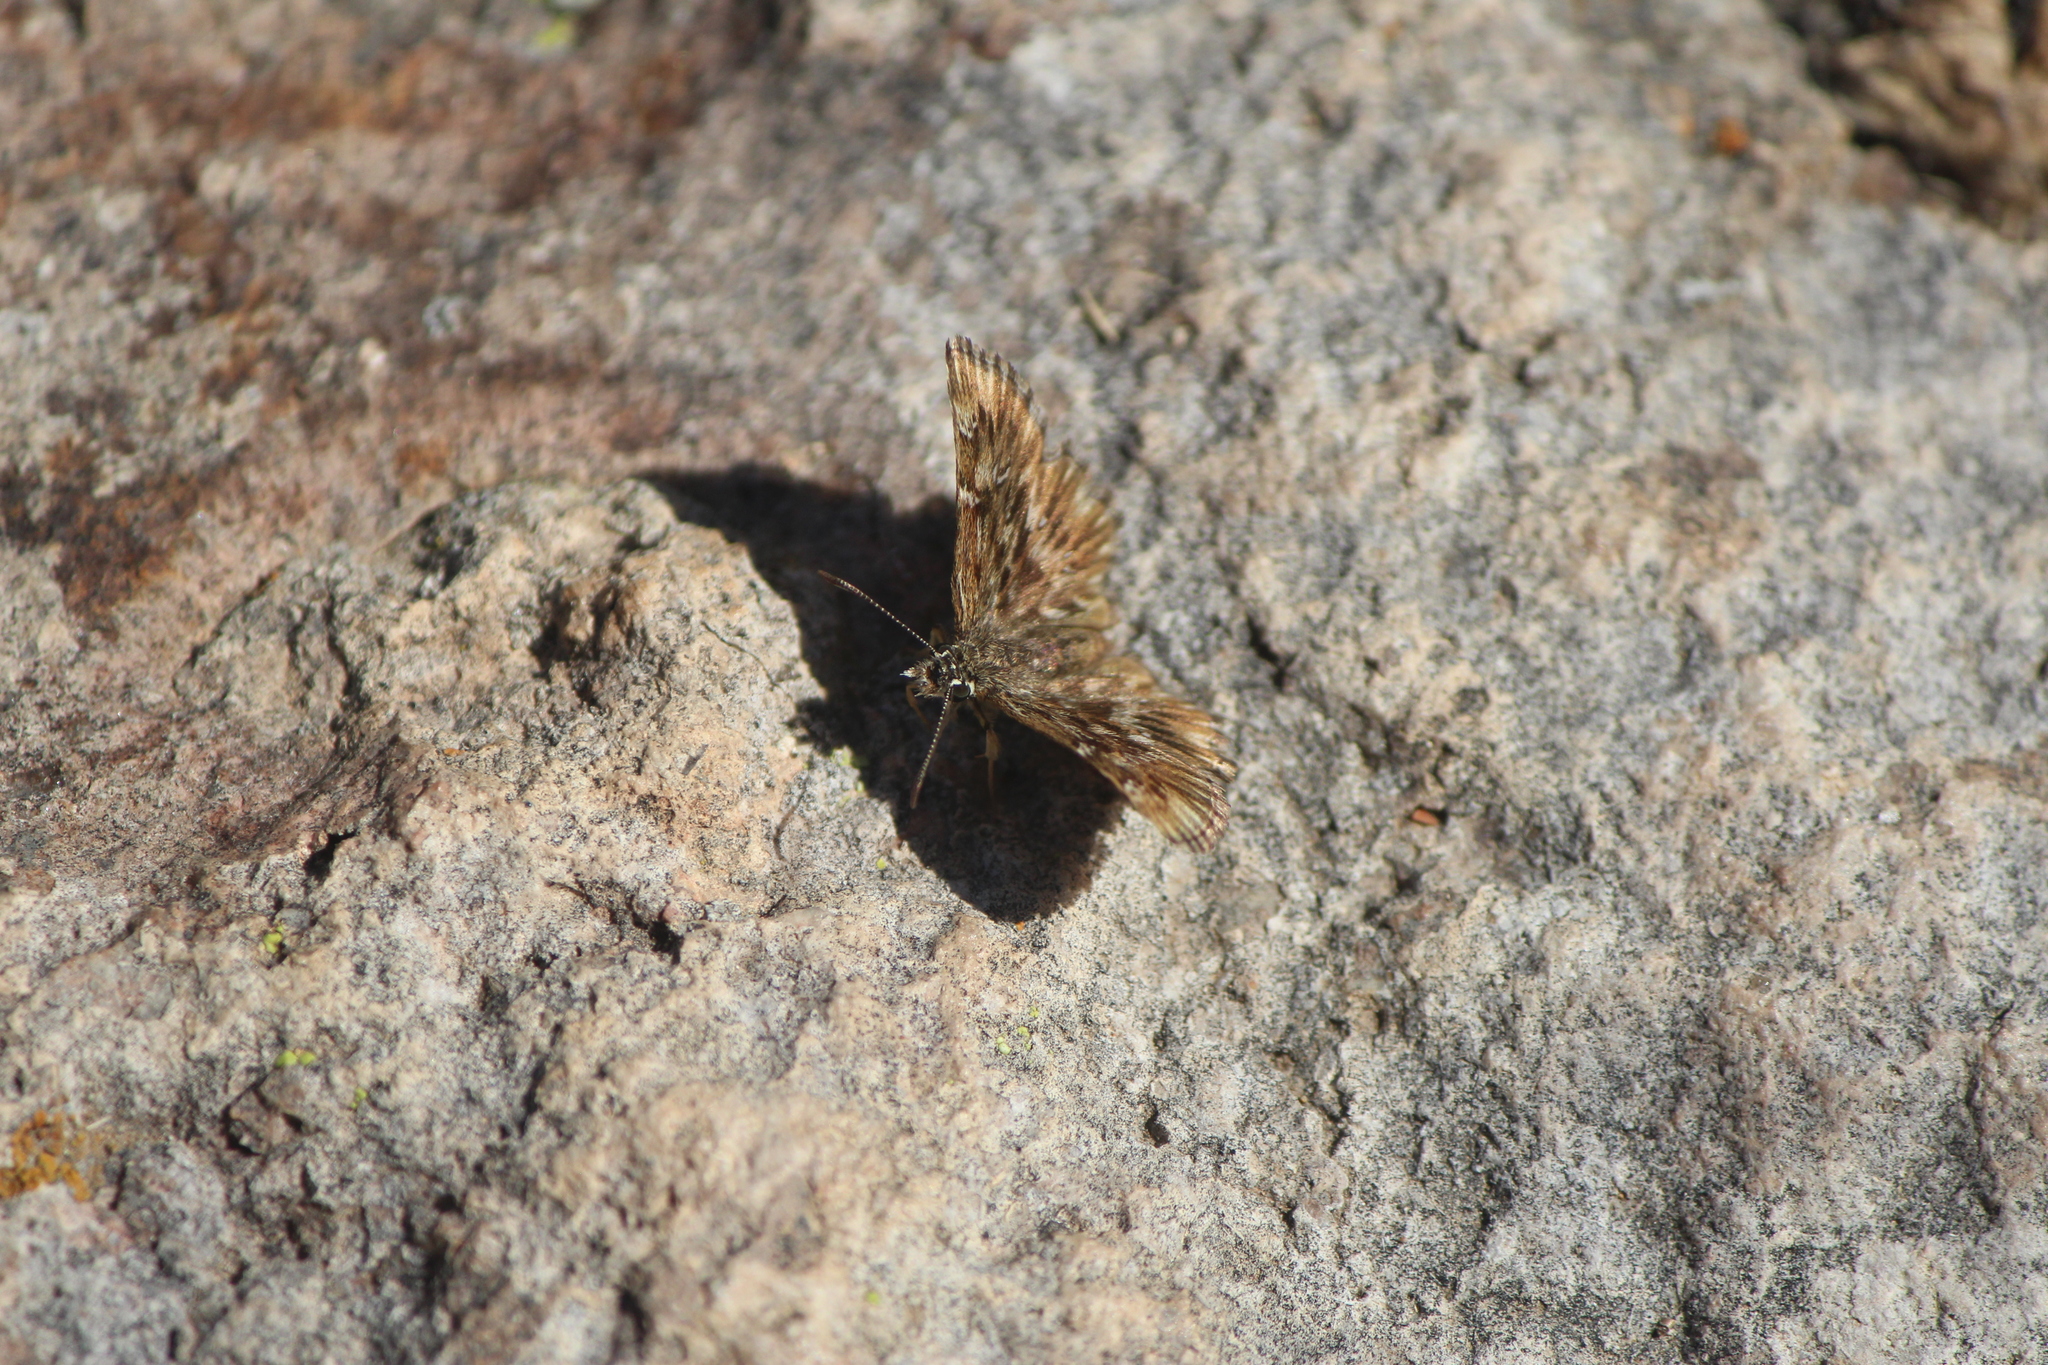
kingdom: Animalia
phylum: Arthropoda
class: Insecta
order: Lepidoptera
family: Hesperiidae
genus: Celotes
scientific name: Celotes spurcus
